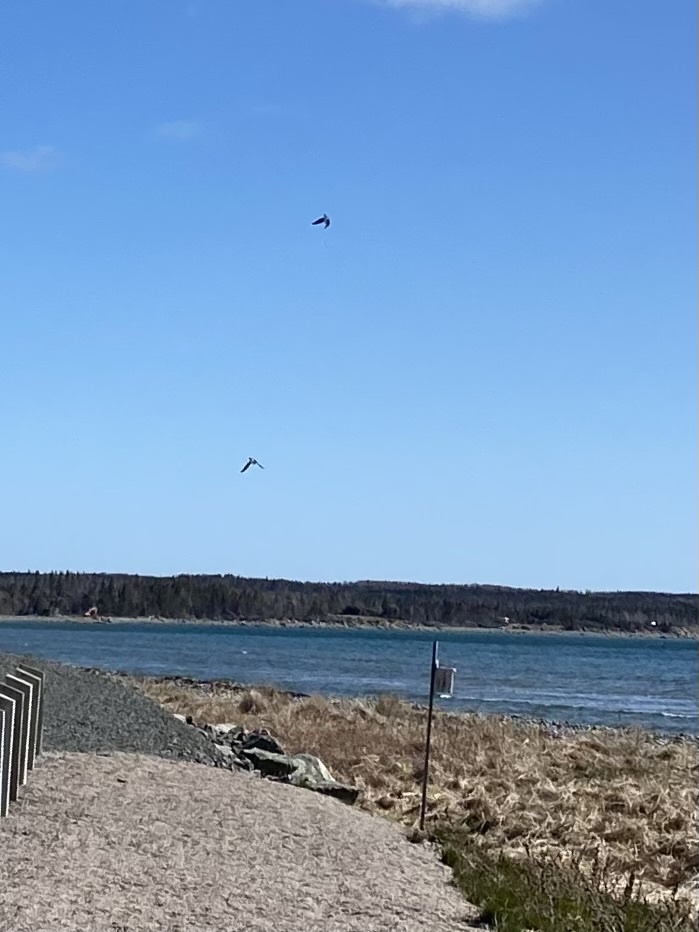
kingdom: Animalia
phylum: Chordata
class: Aves
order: Passeriformes
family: Hirundinidae
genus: Tachycineta
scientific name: Tachycineta bicolor
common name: Tree swallow
